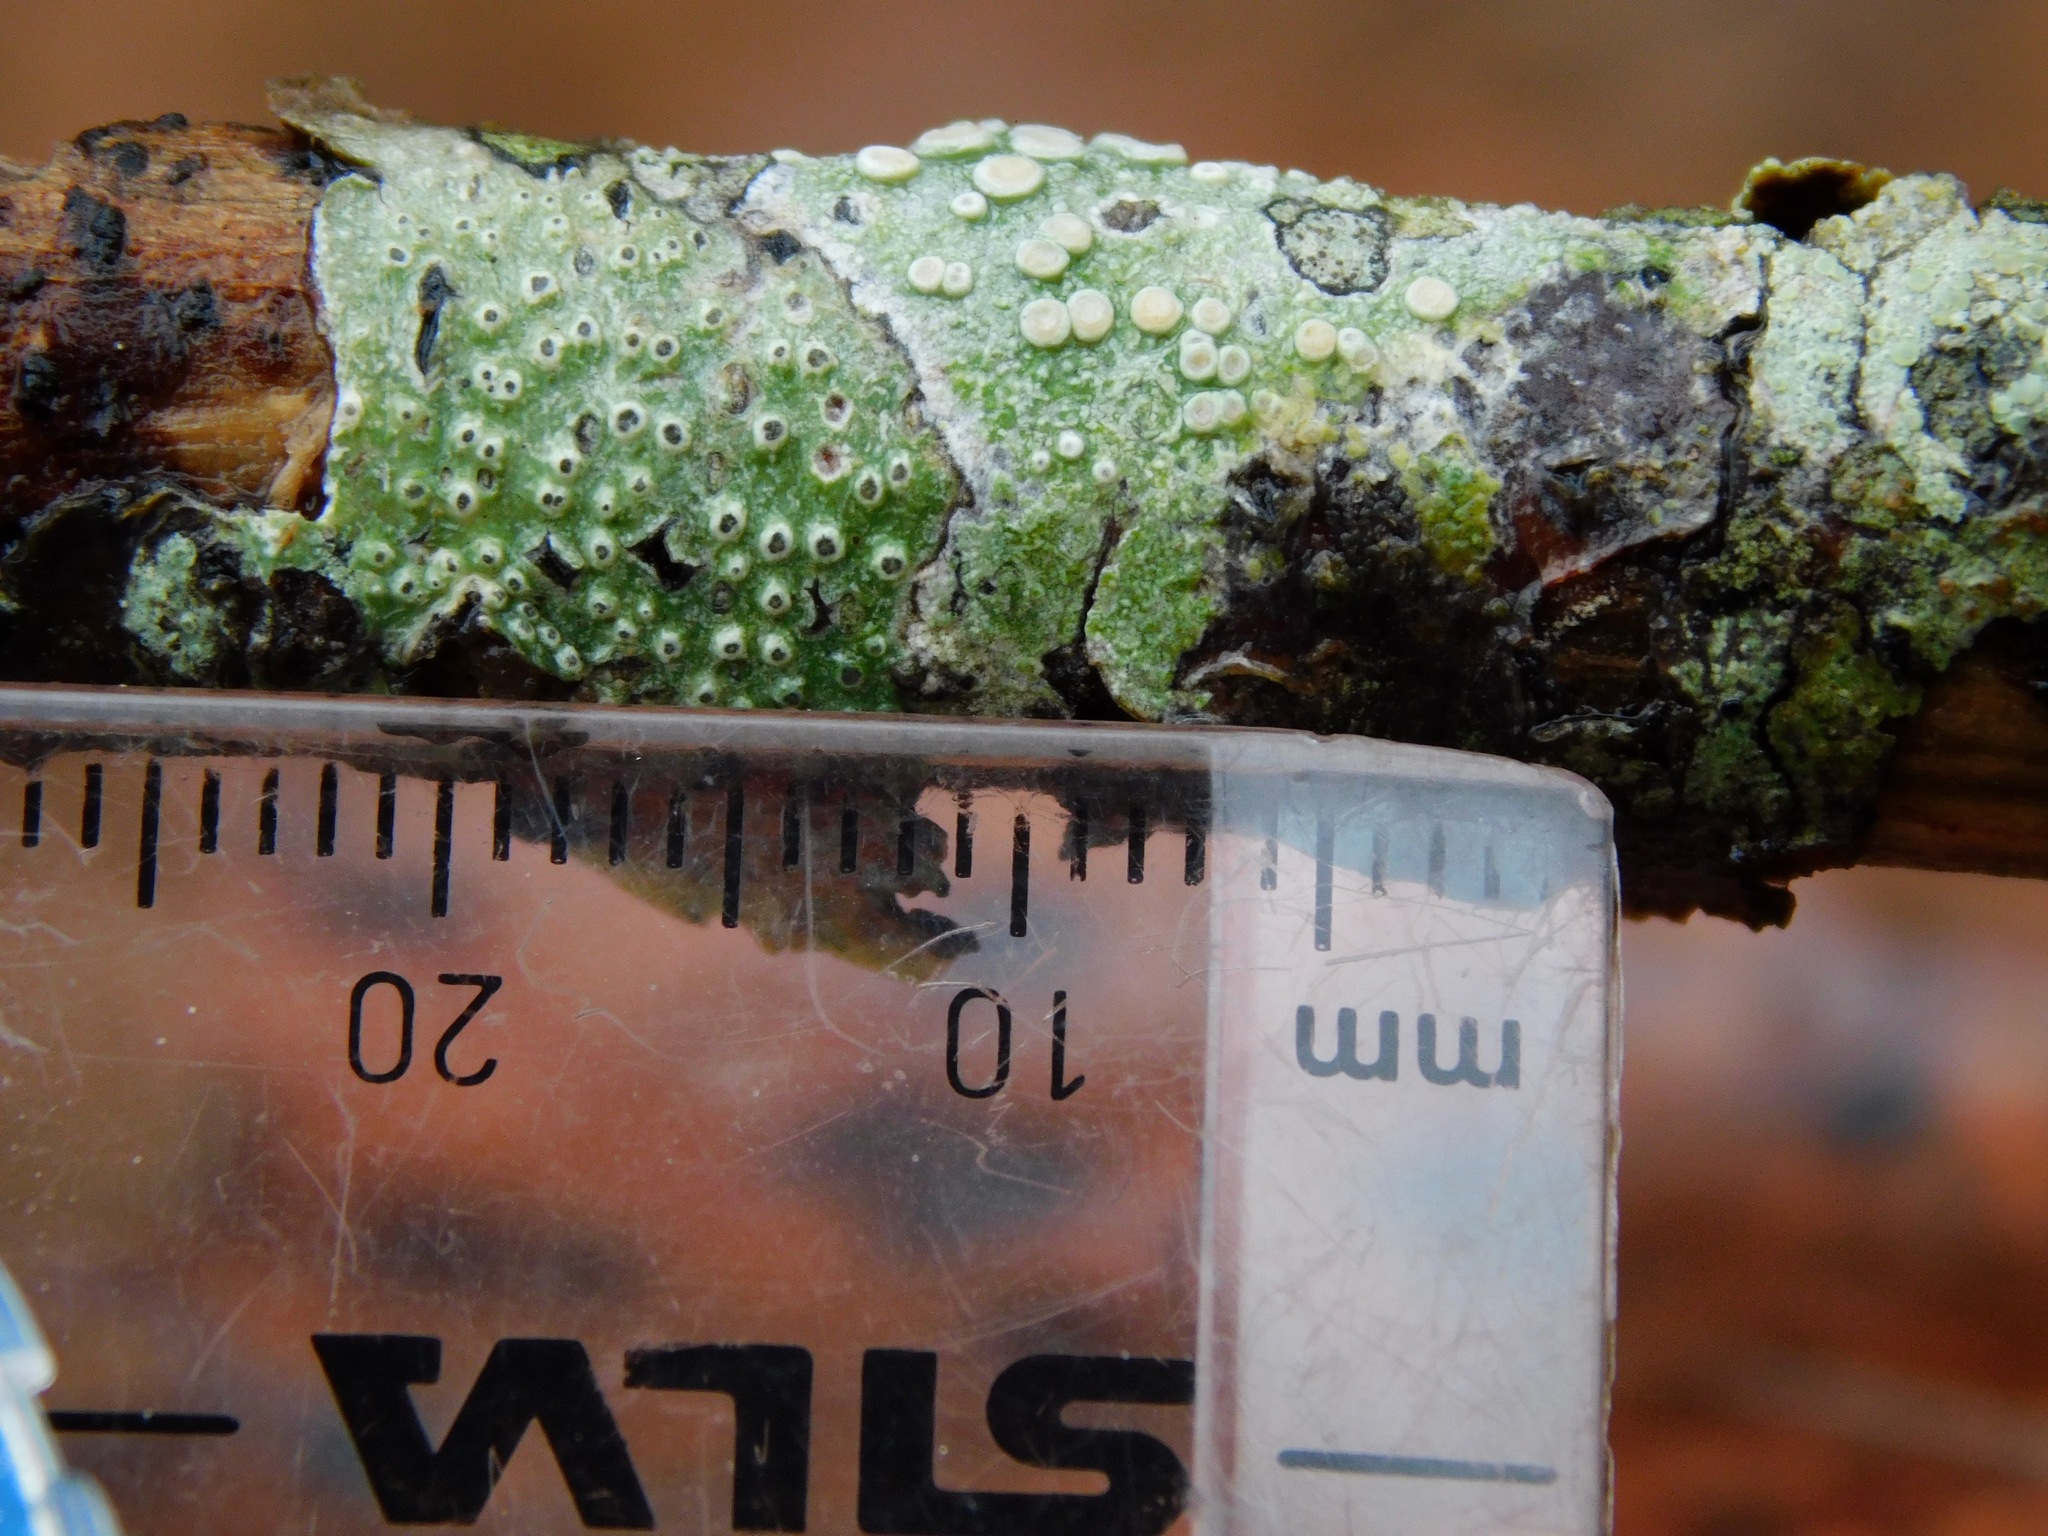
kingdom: Fungi
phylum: Ascomycota
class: Lecanoromycetes
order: Pertusariales
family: Pertusariaceae
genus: Pertusaria
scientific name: Pertusaria sinusmexicani
